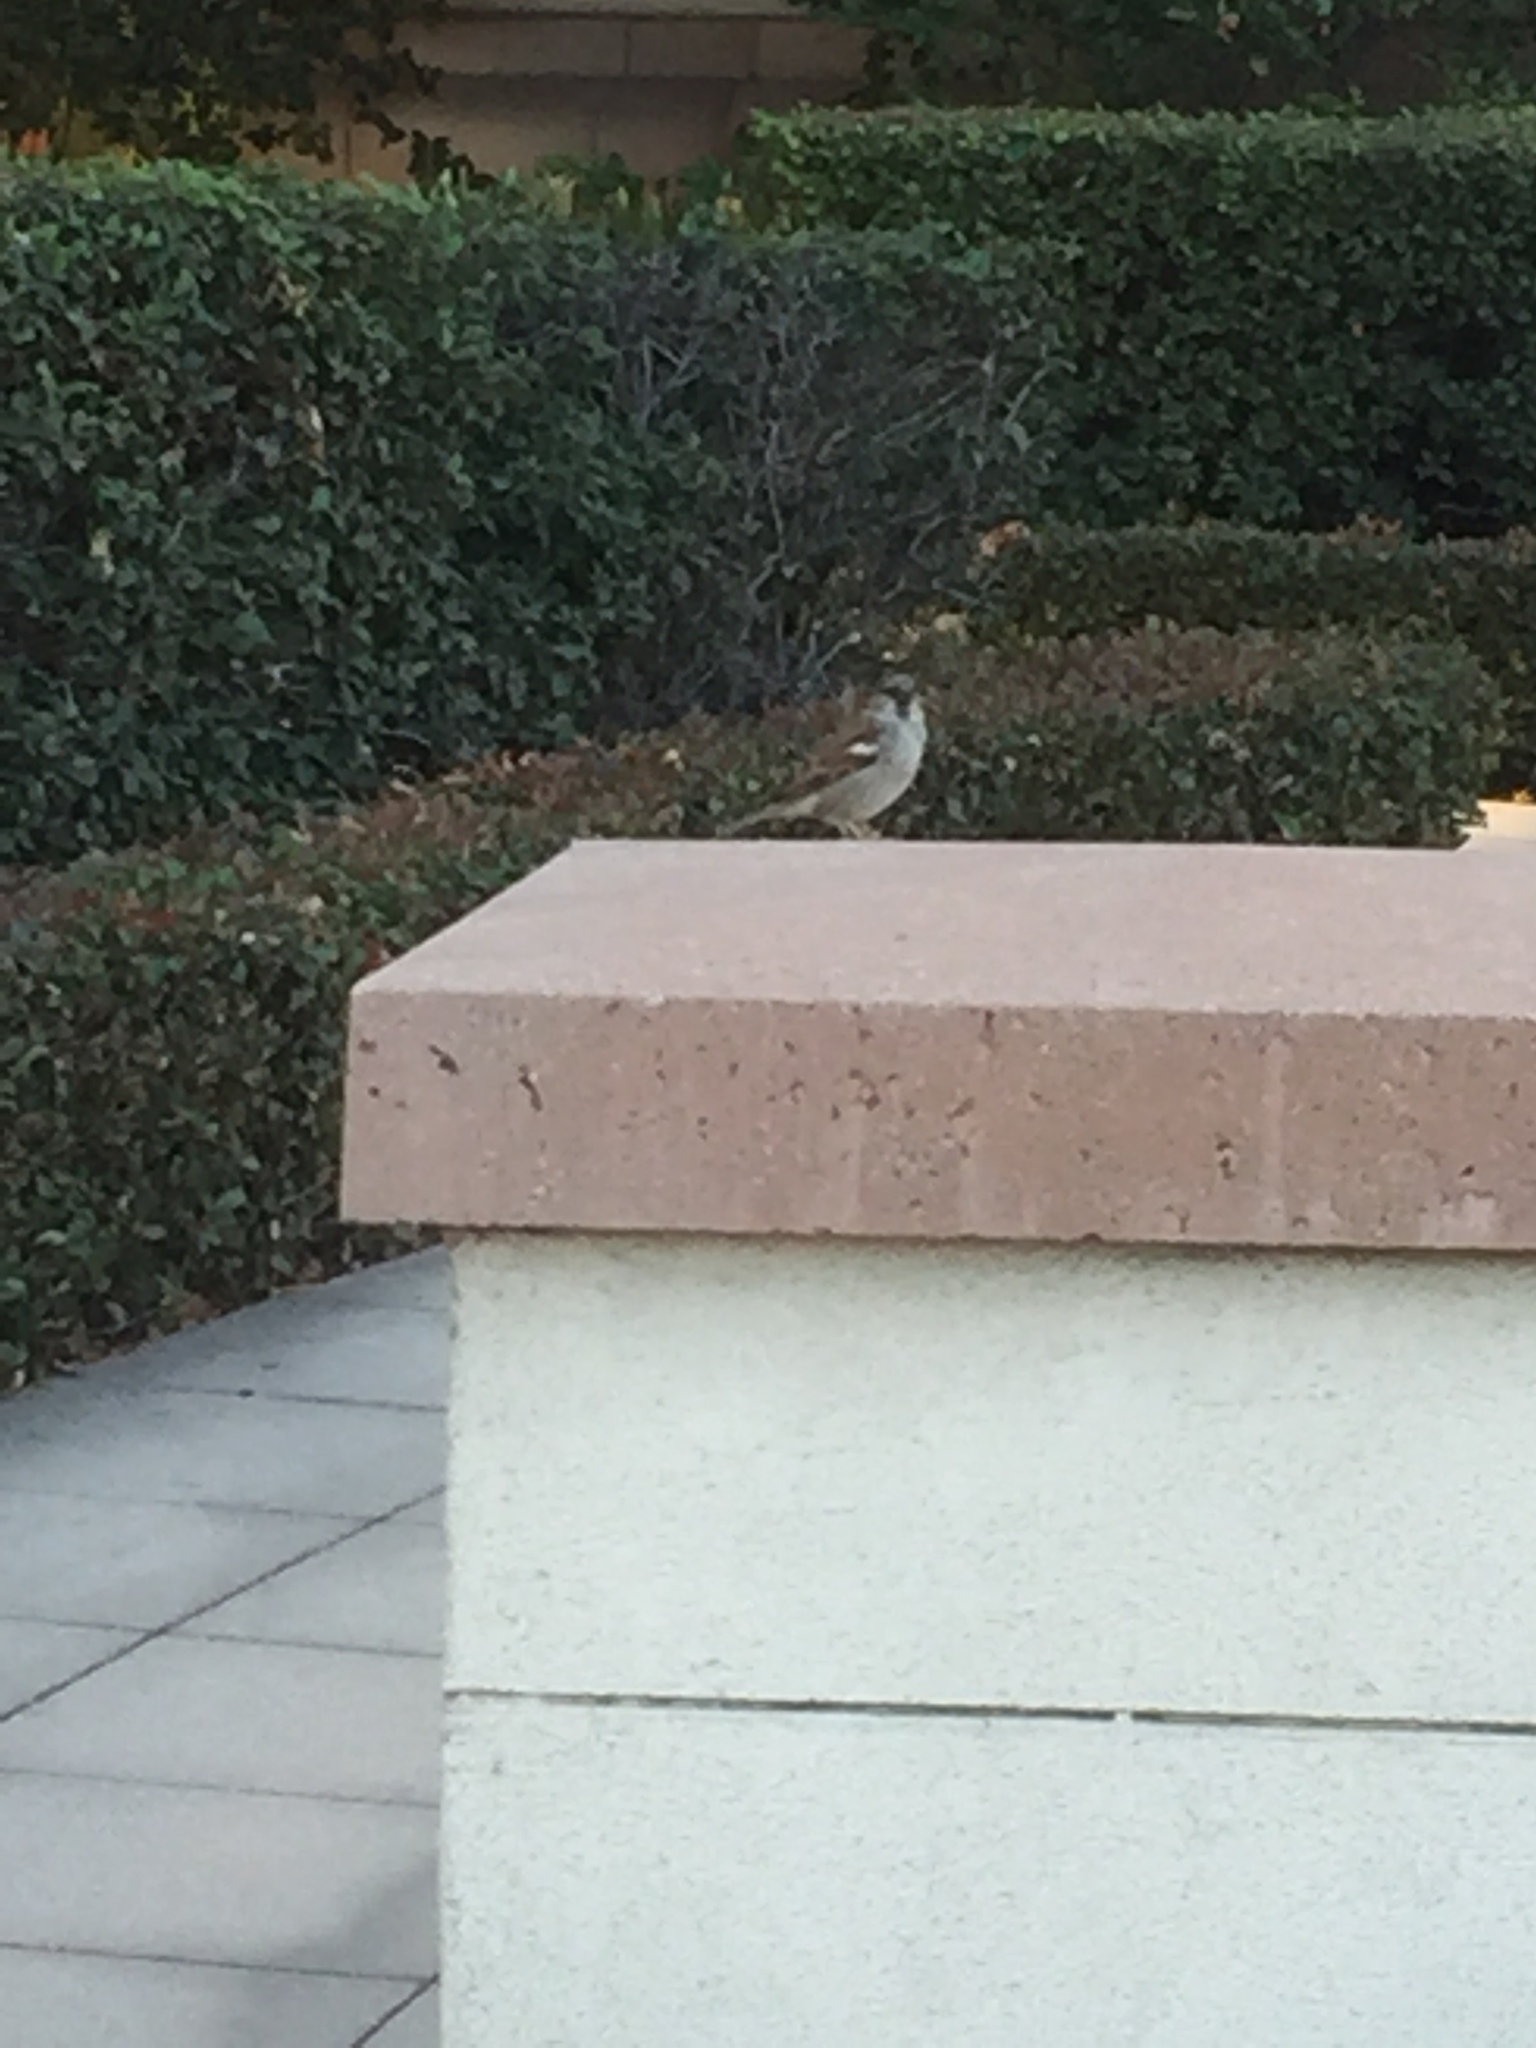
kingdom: Animalia
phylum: Chordata
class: Aves
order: Passeriformes
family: Passeridae
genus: Passer
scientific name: Passer domesticus
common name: House sparrow
